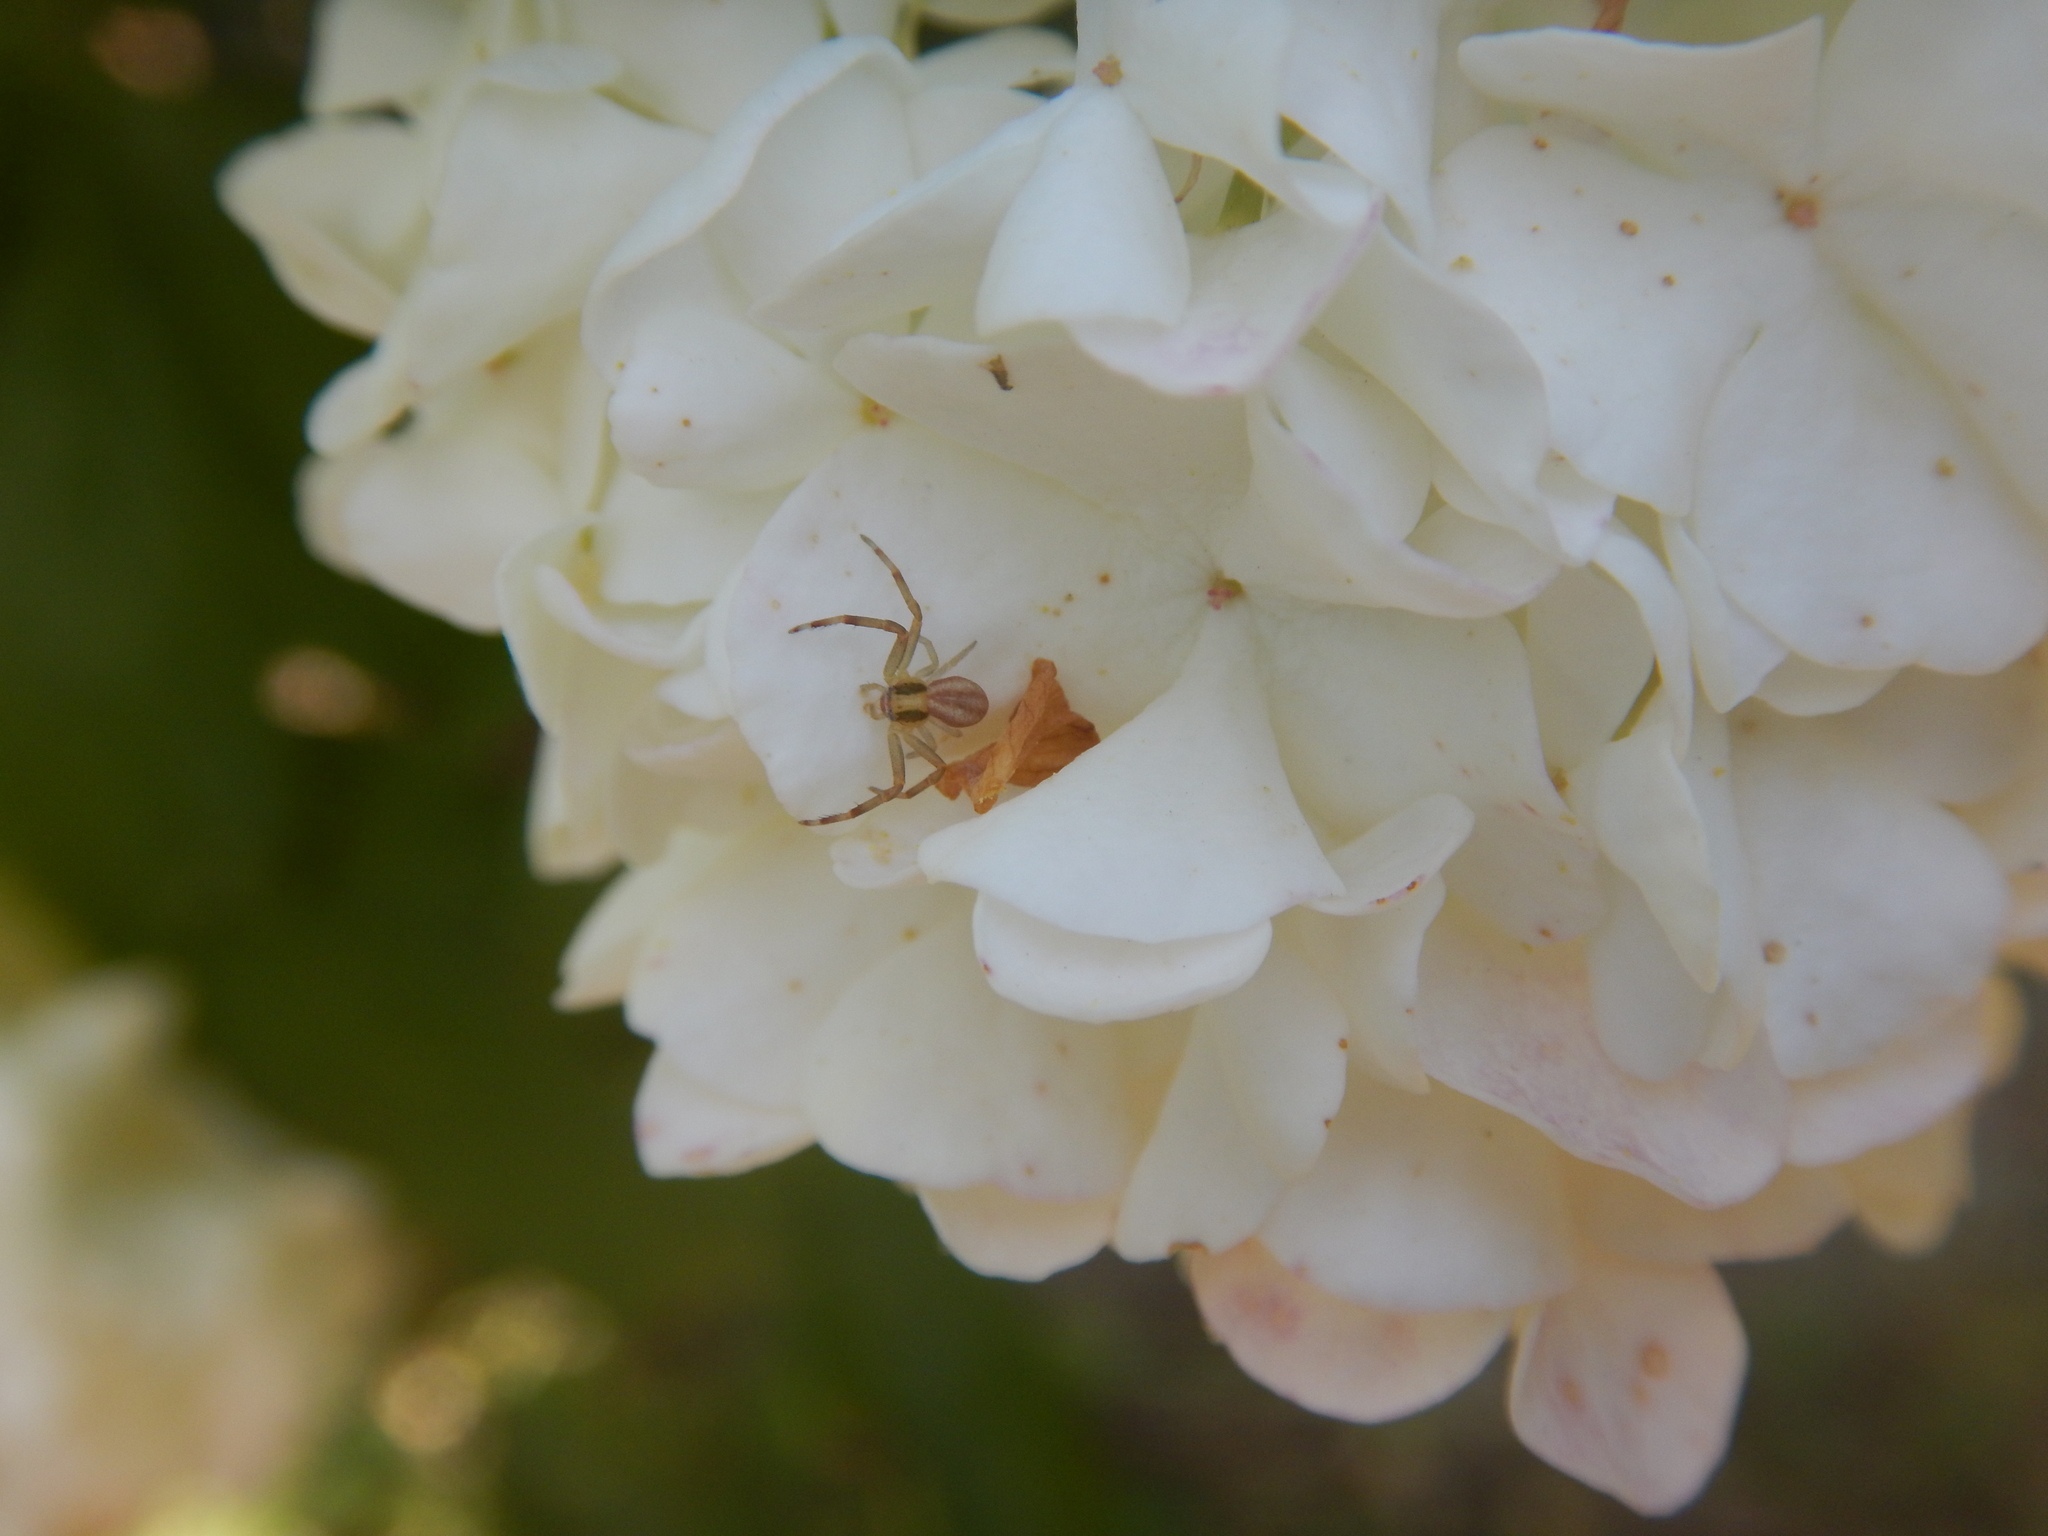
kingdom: Animalia
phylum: Arthropoda
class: Arachnida
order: Araneae
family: Thomisidae
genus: Runcinia
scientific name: Runcinia grammica
